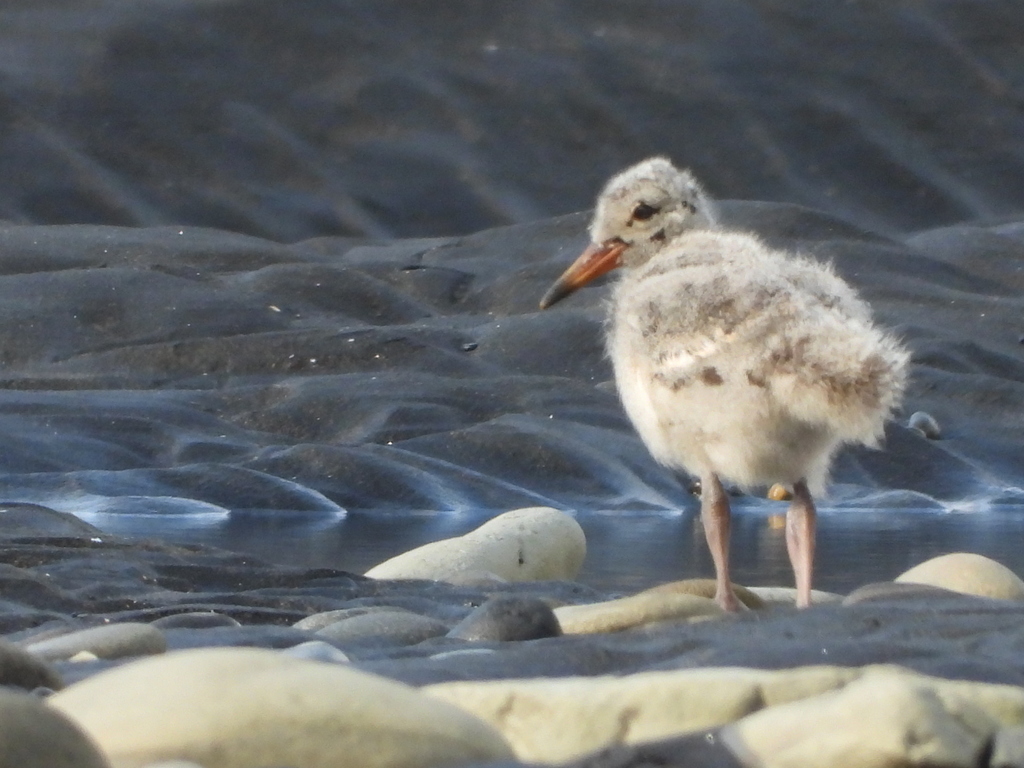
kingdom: Animalia
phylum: Chordata
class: Aves
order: Charadriiformes
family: Haematopodidae
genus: Haematopus
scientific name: Haematopus unicolor
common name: Variable oystercatcher
